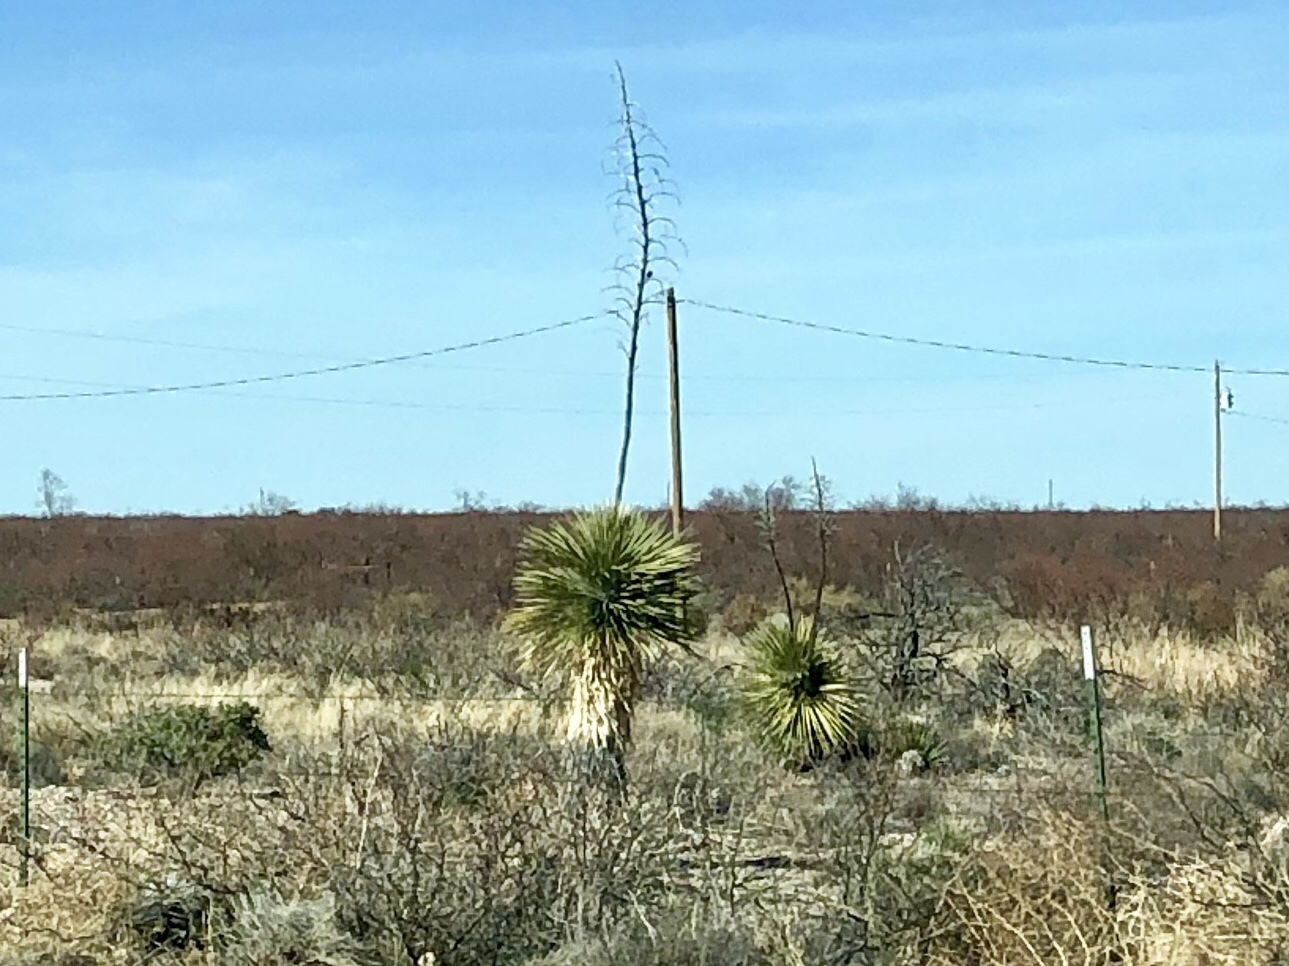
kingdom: Plantae
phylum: Tracheophyta
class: Liliopsida
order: Asparagales
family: Asparagaceae
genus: Yucca
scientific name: Yucca elata
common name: Palmella
